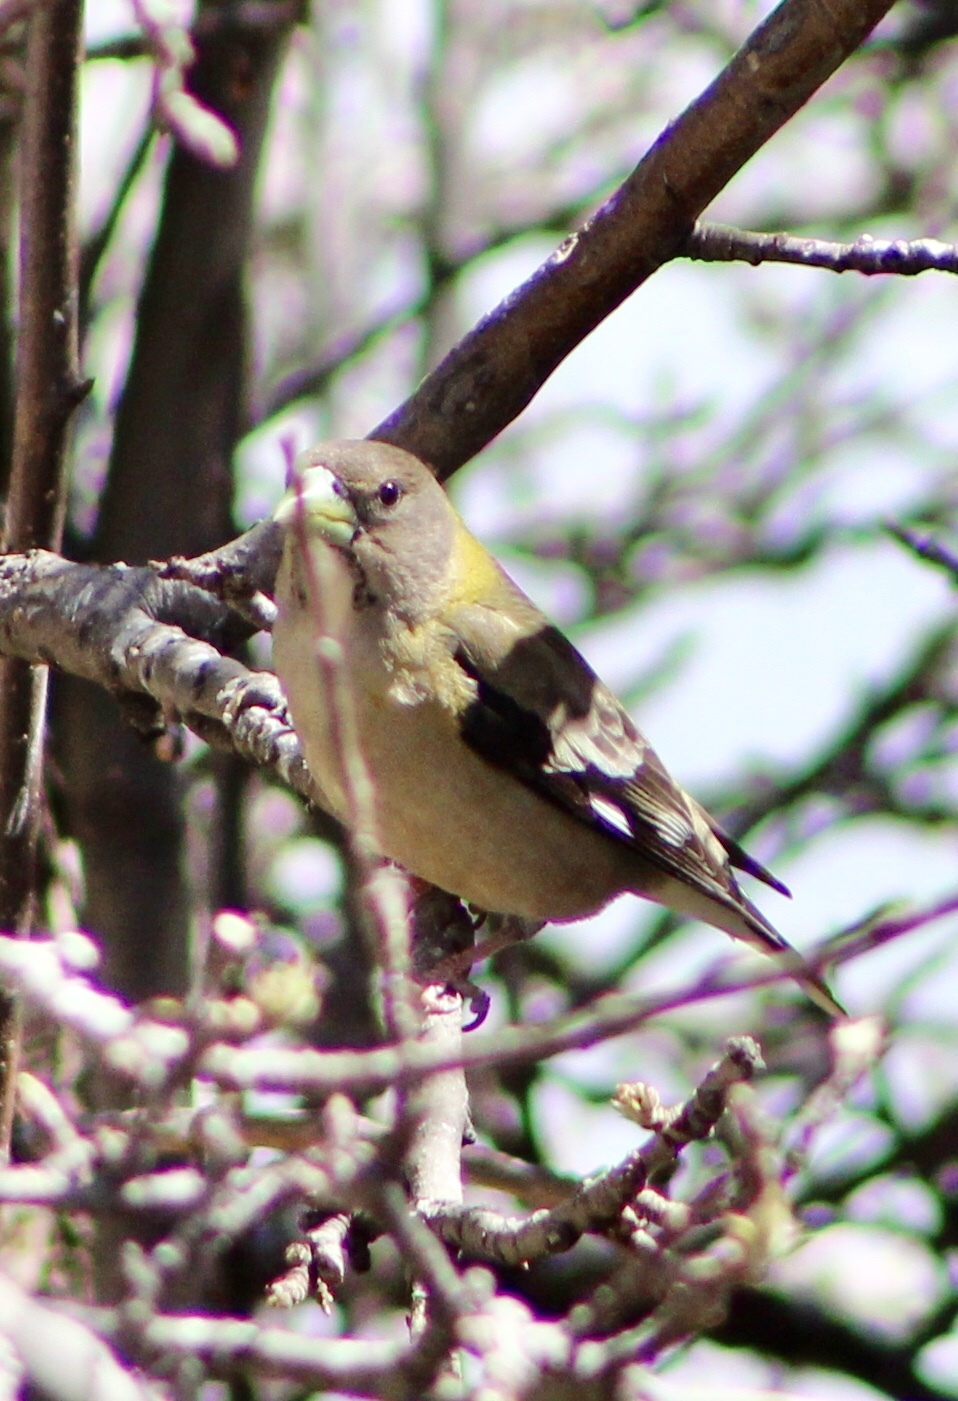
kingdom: Animalia
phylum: Chordata
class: Aves
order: Passeriformes
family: Fringillidae
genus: Hesperiphona
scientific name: Hesperiphona vespertina
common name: Evening grosbeak
